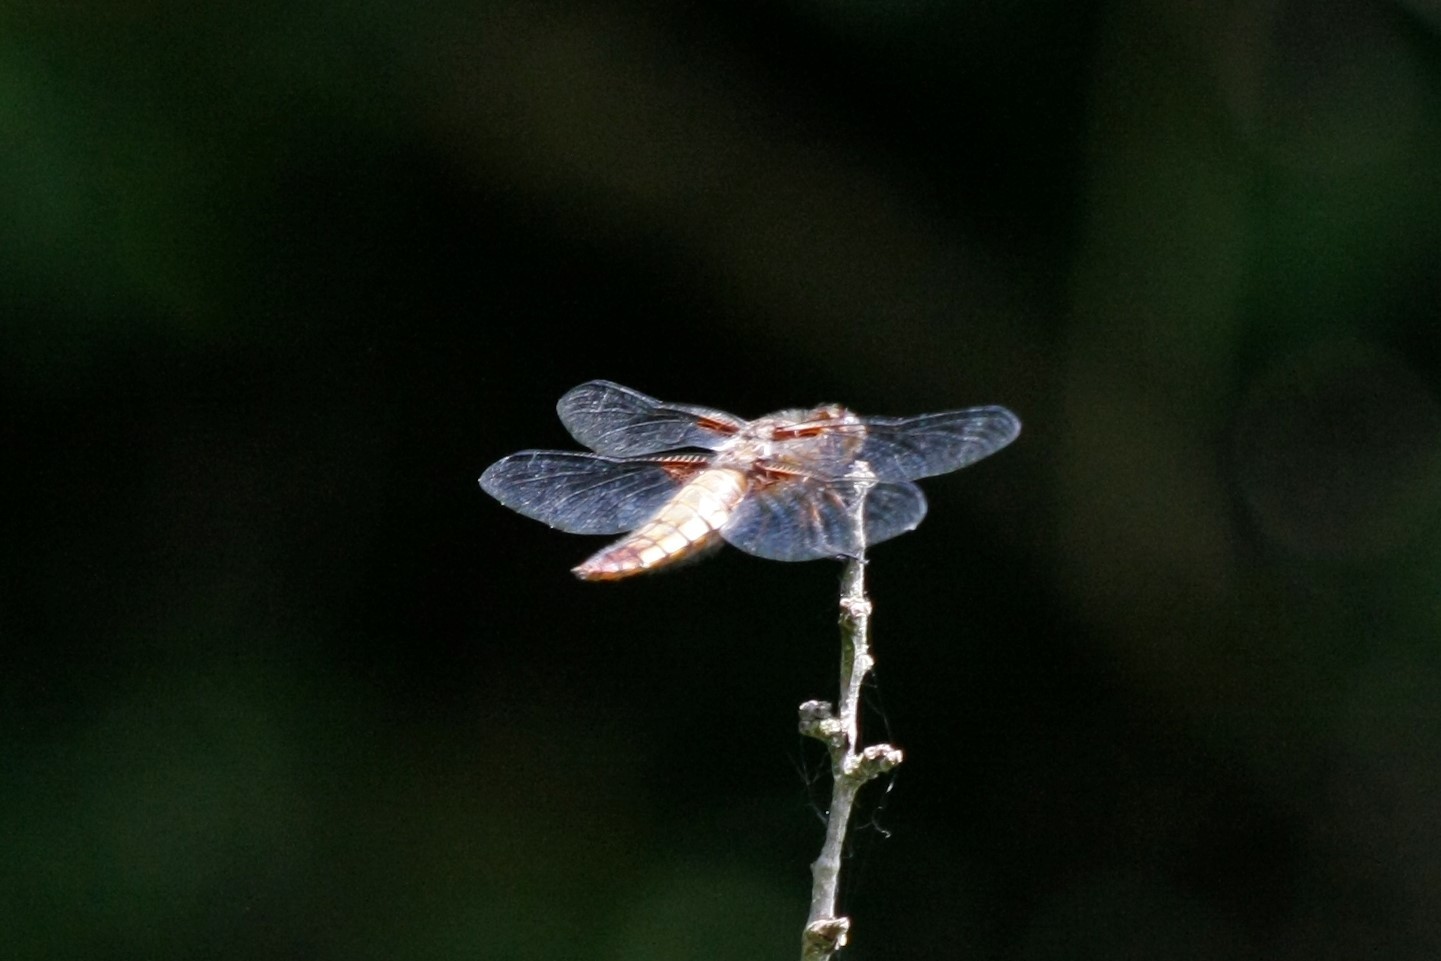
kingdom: Animalia
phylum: Arthropoda
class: Insecta
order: Odonata
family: Libellulidae
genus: Libellula
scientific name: Libellula depressa
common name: Broad-bodied chaser
